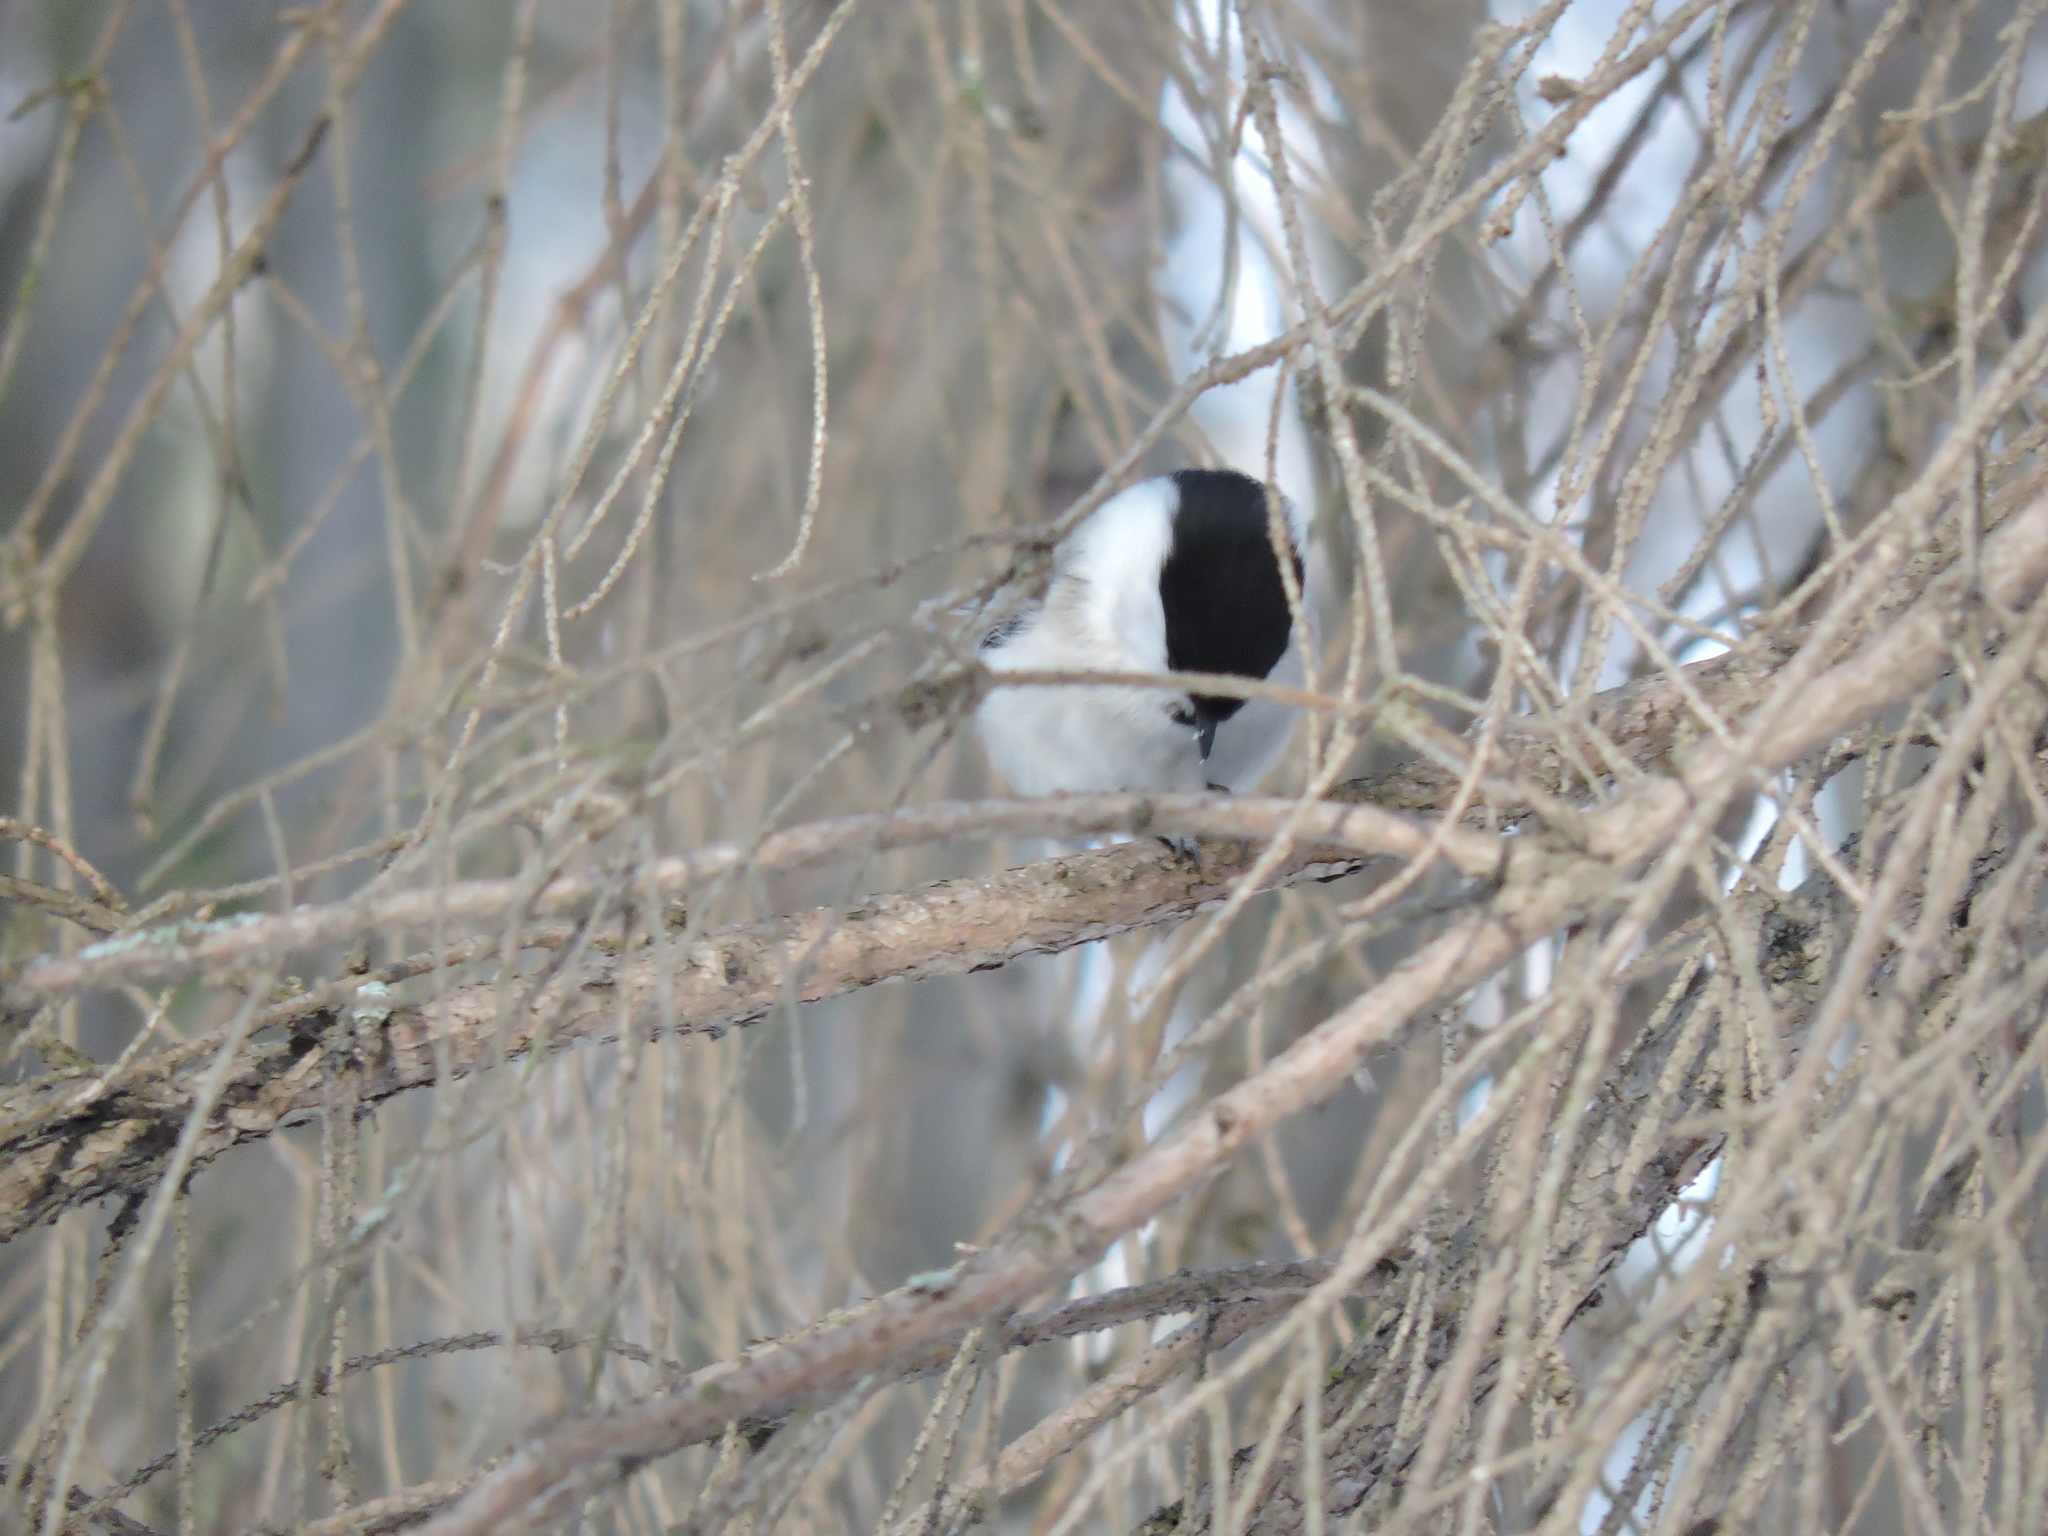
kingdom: Animalia
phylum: Chordata
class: Aves
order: Passeriformes
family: Paridae
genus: Poecile
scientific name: Poecile montanus
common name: Willow tit
